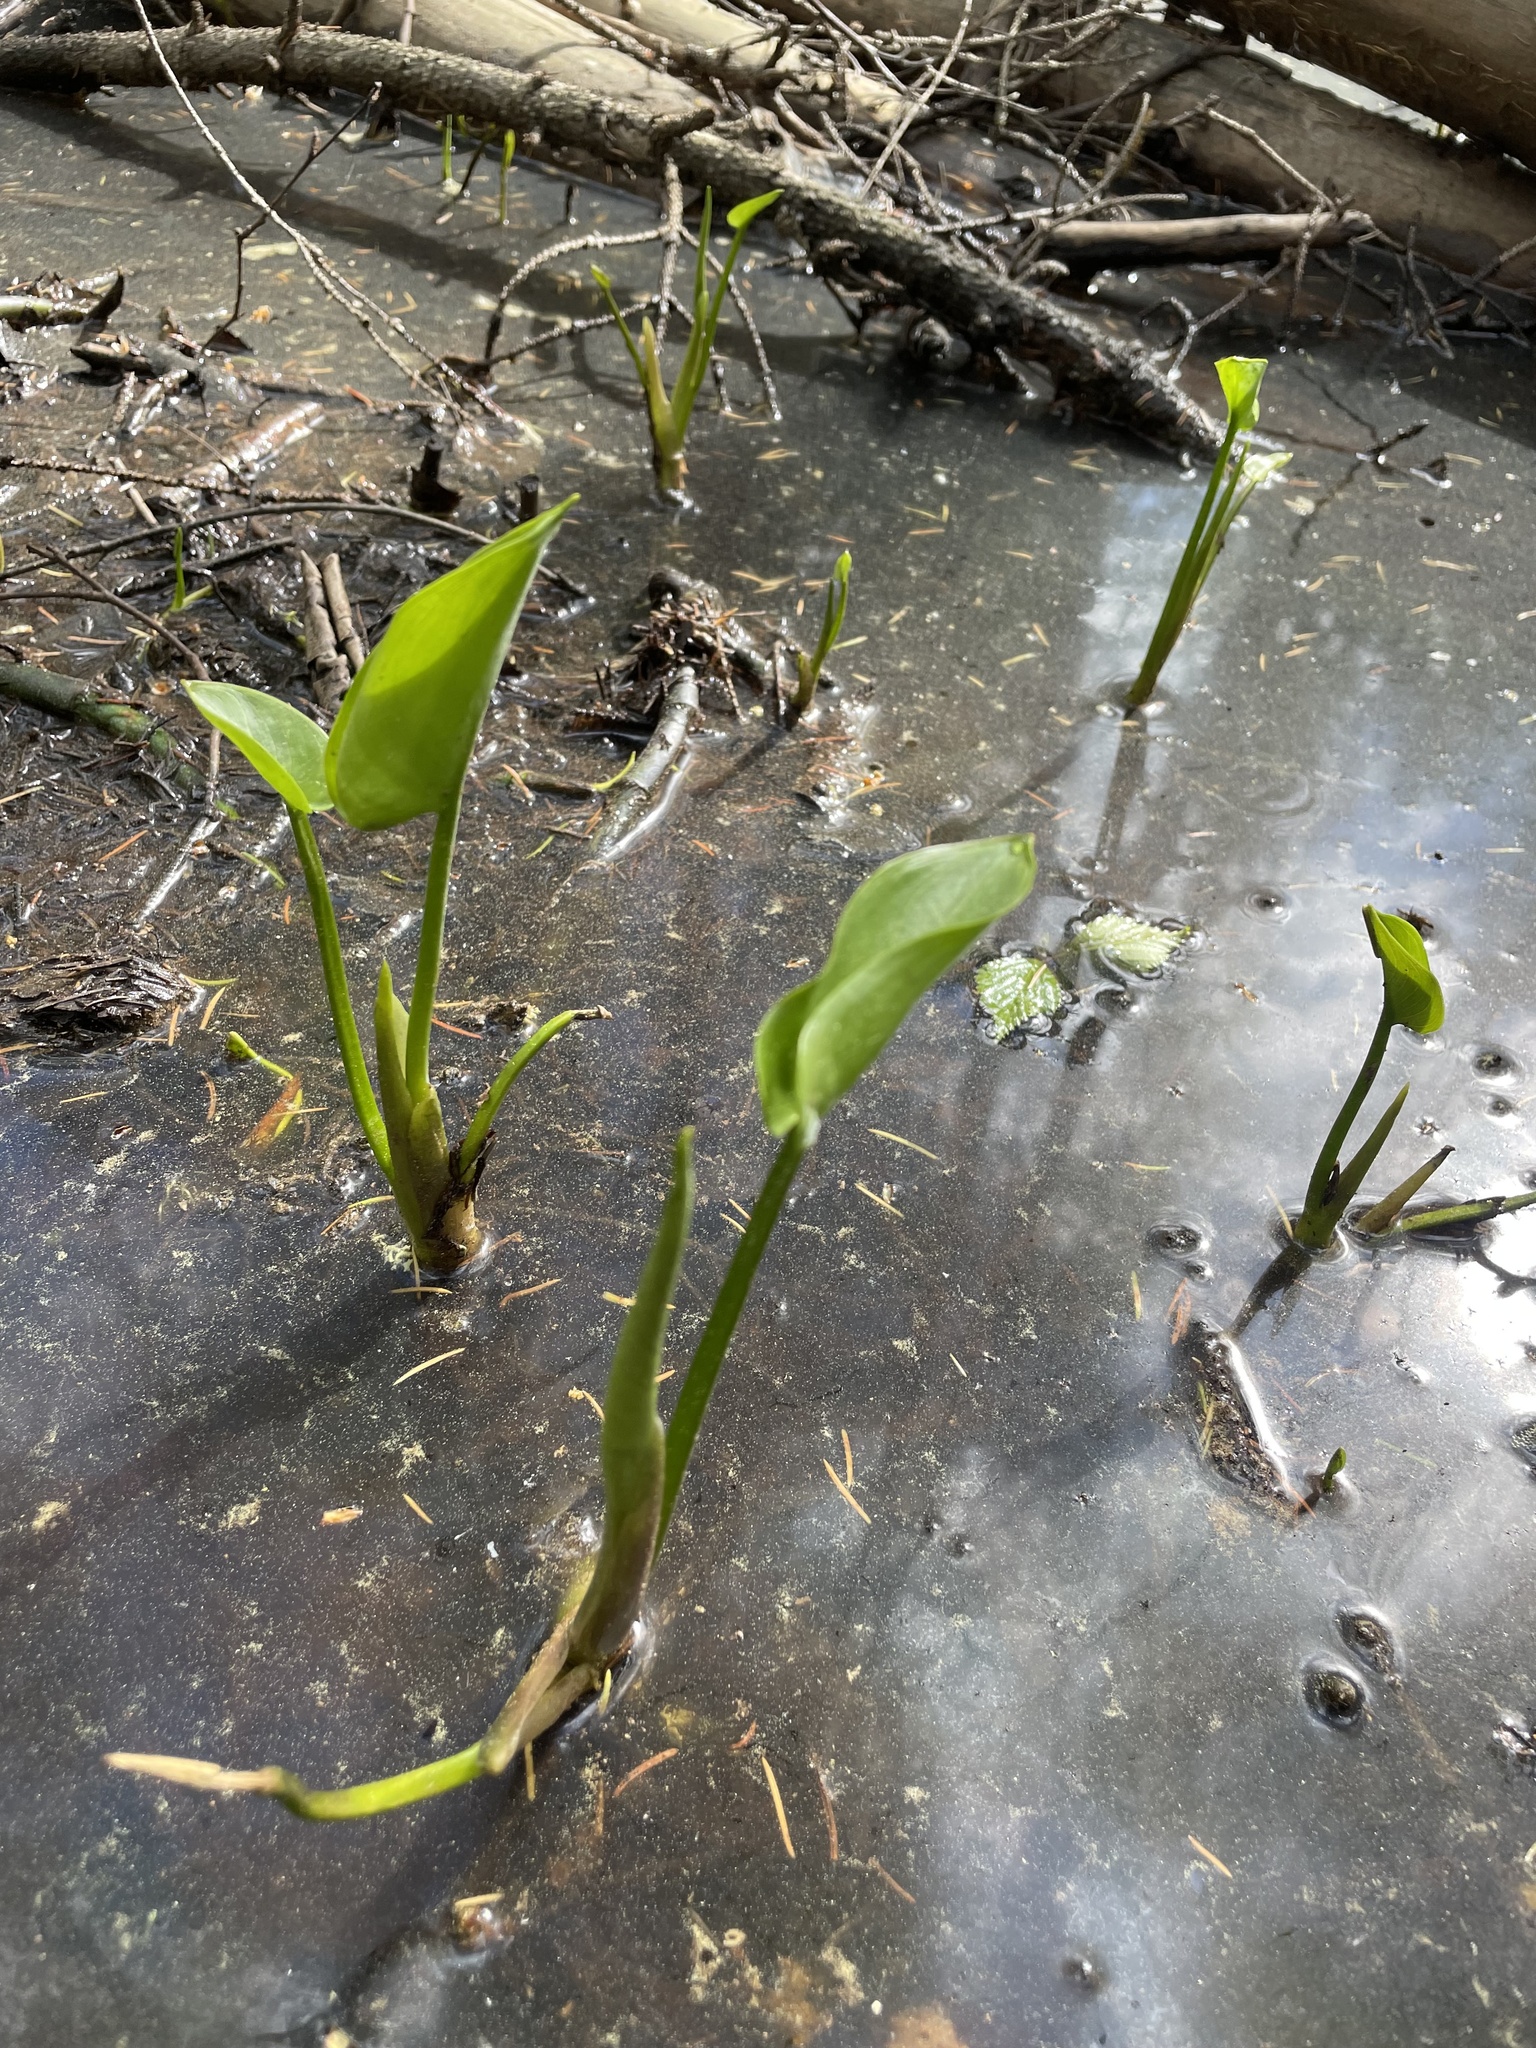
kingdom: Plantae
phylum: Tracheophyta
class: Liliopsida
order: Alismatales
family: Araceae
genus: Calla
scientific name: Calla palustris
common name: Bog arum
